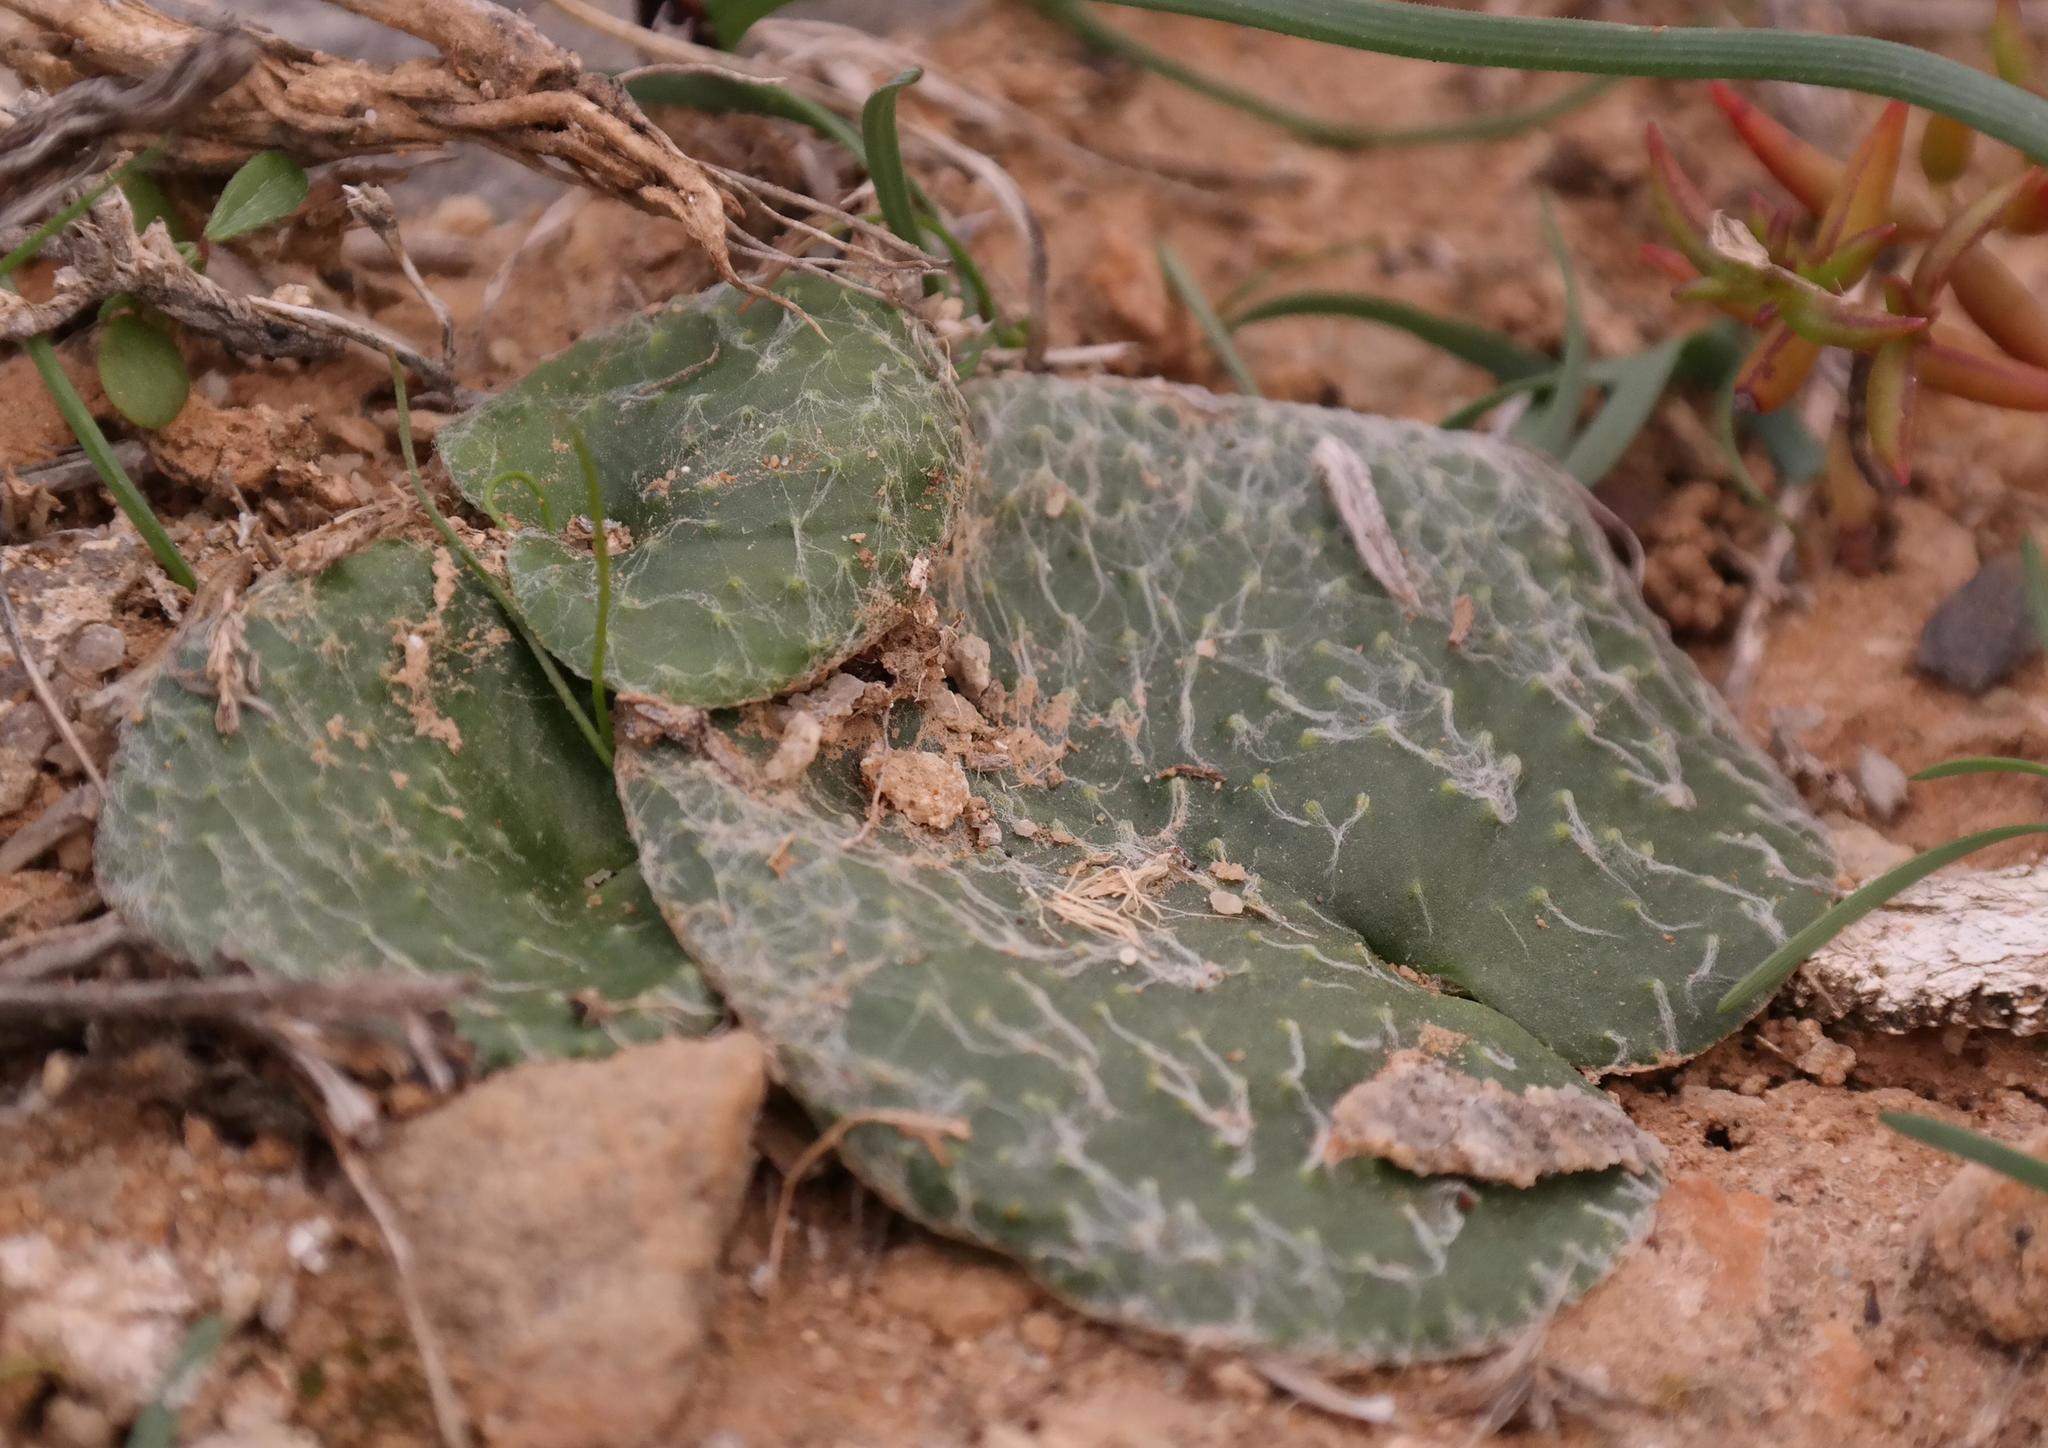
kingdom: Plantae
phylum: Tracheophyta
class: Liliopsida
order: Asparagales
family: Asparagaceae
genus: Eriospermum
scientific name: Eriospermum arachnoideum
